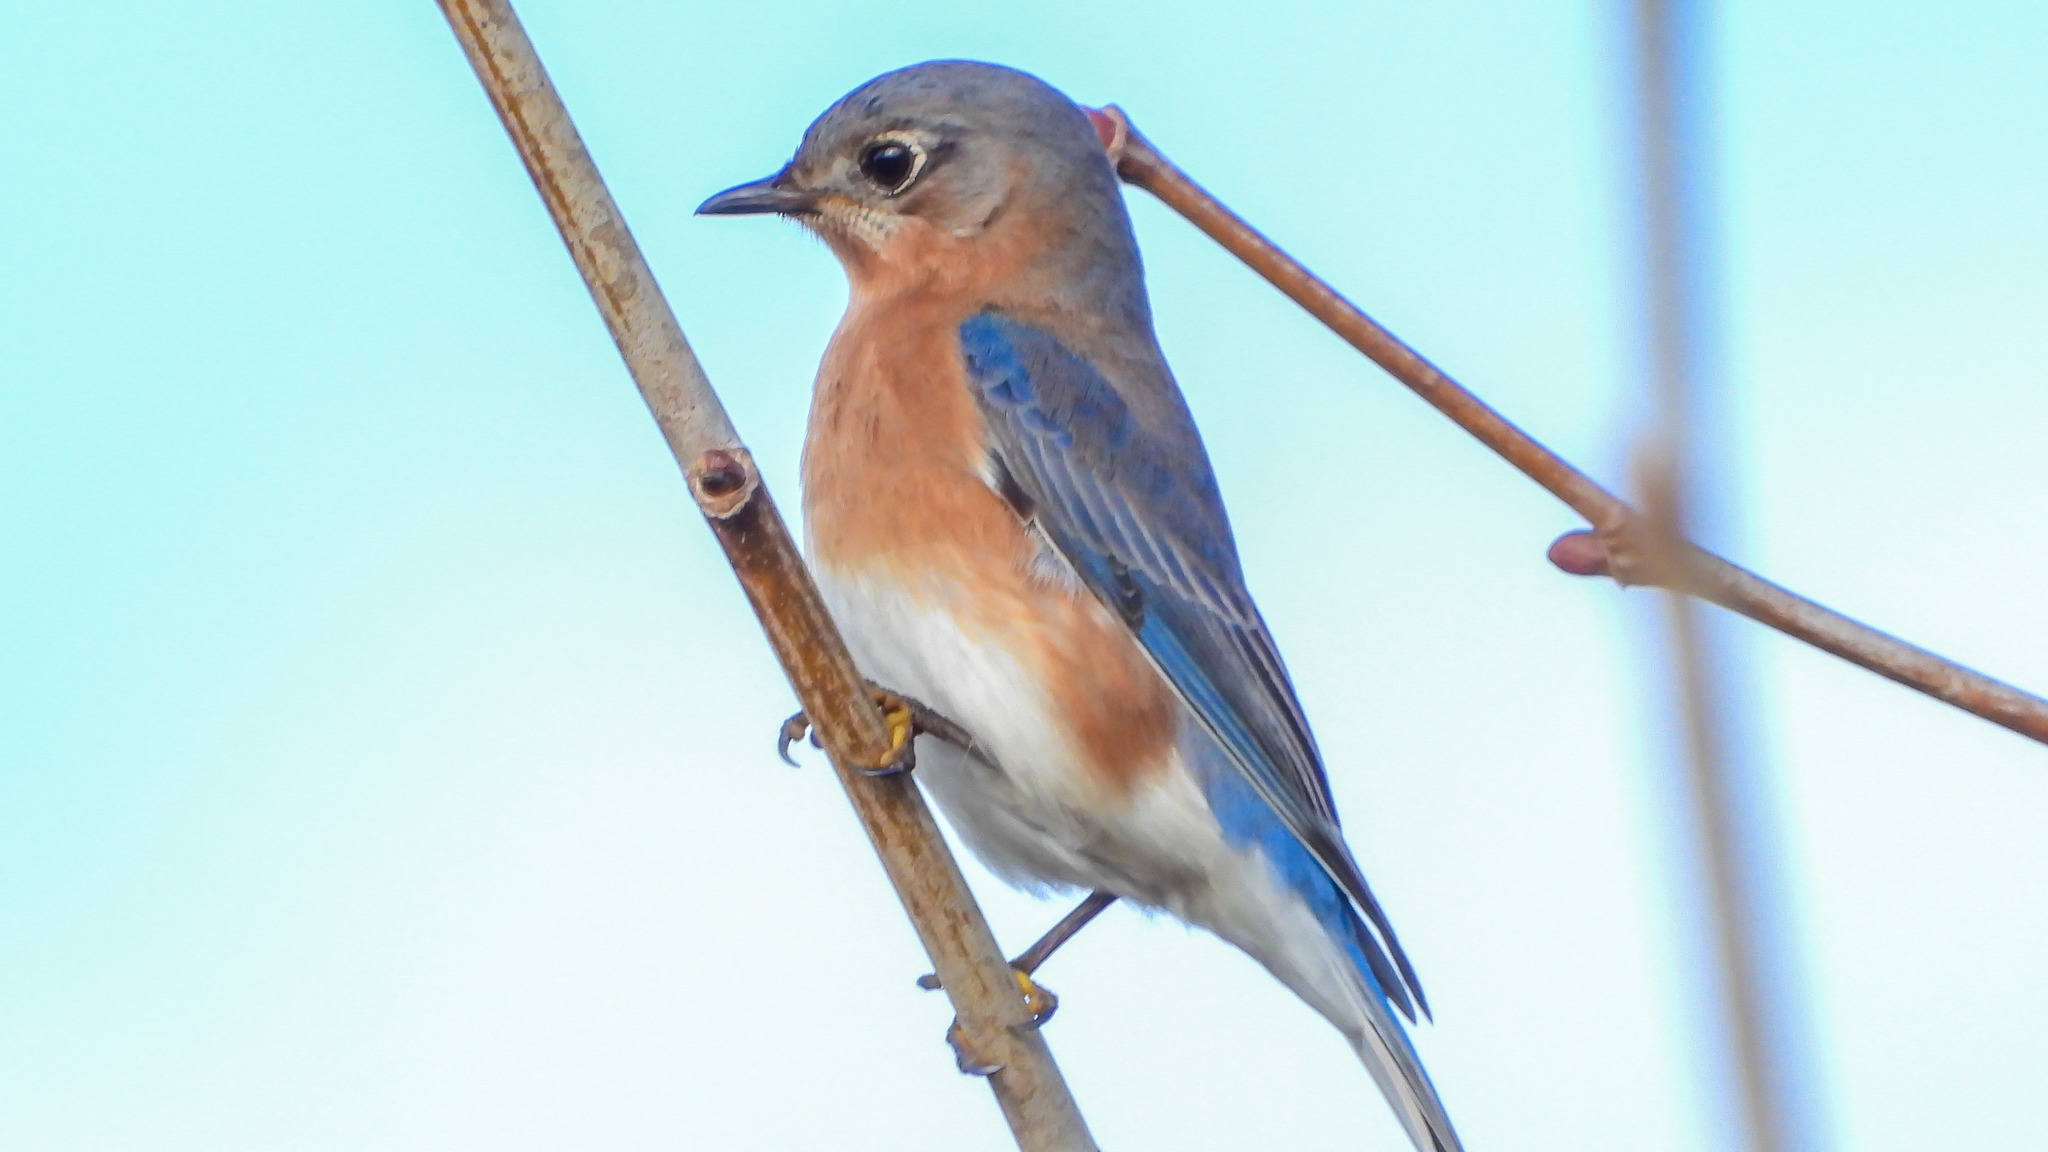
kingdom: Animalia
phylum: Chordata
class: Aves
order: Passeriformes
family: Turdidae
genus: Sialia
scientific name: Sialia sialis
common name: Eastern bluebird
